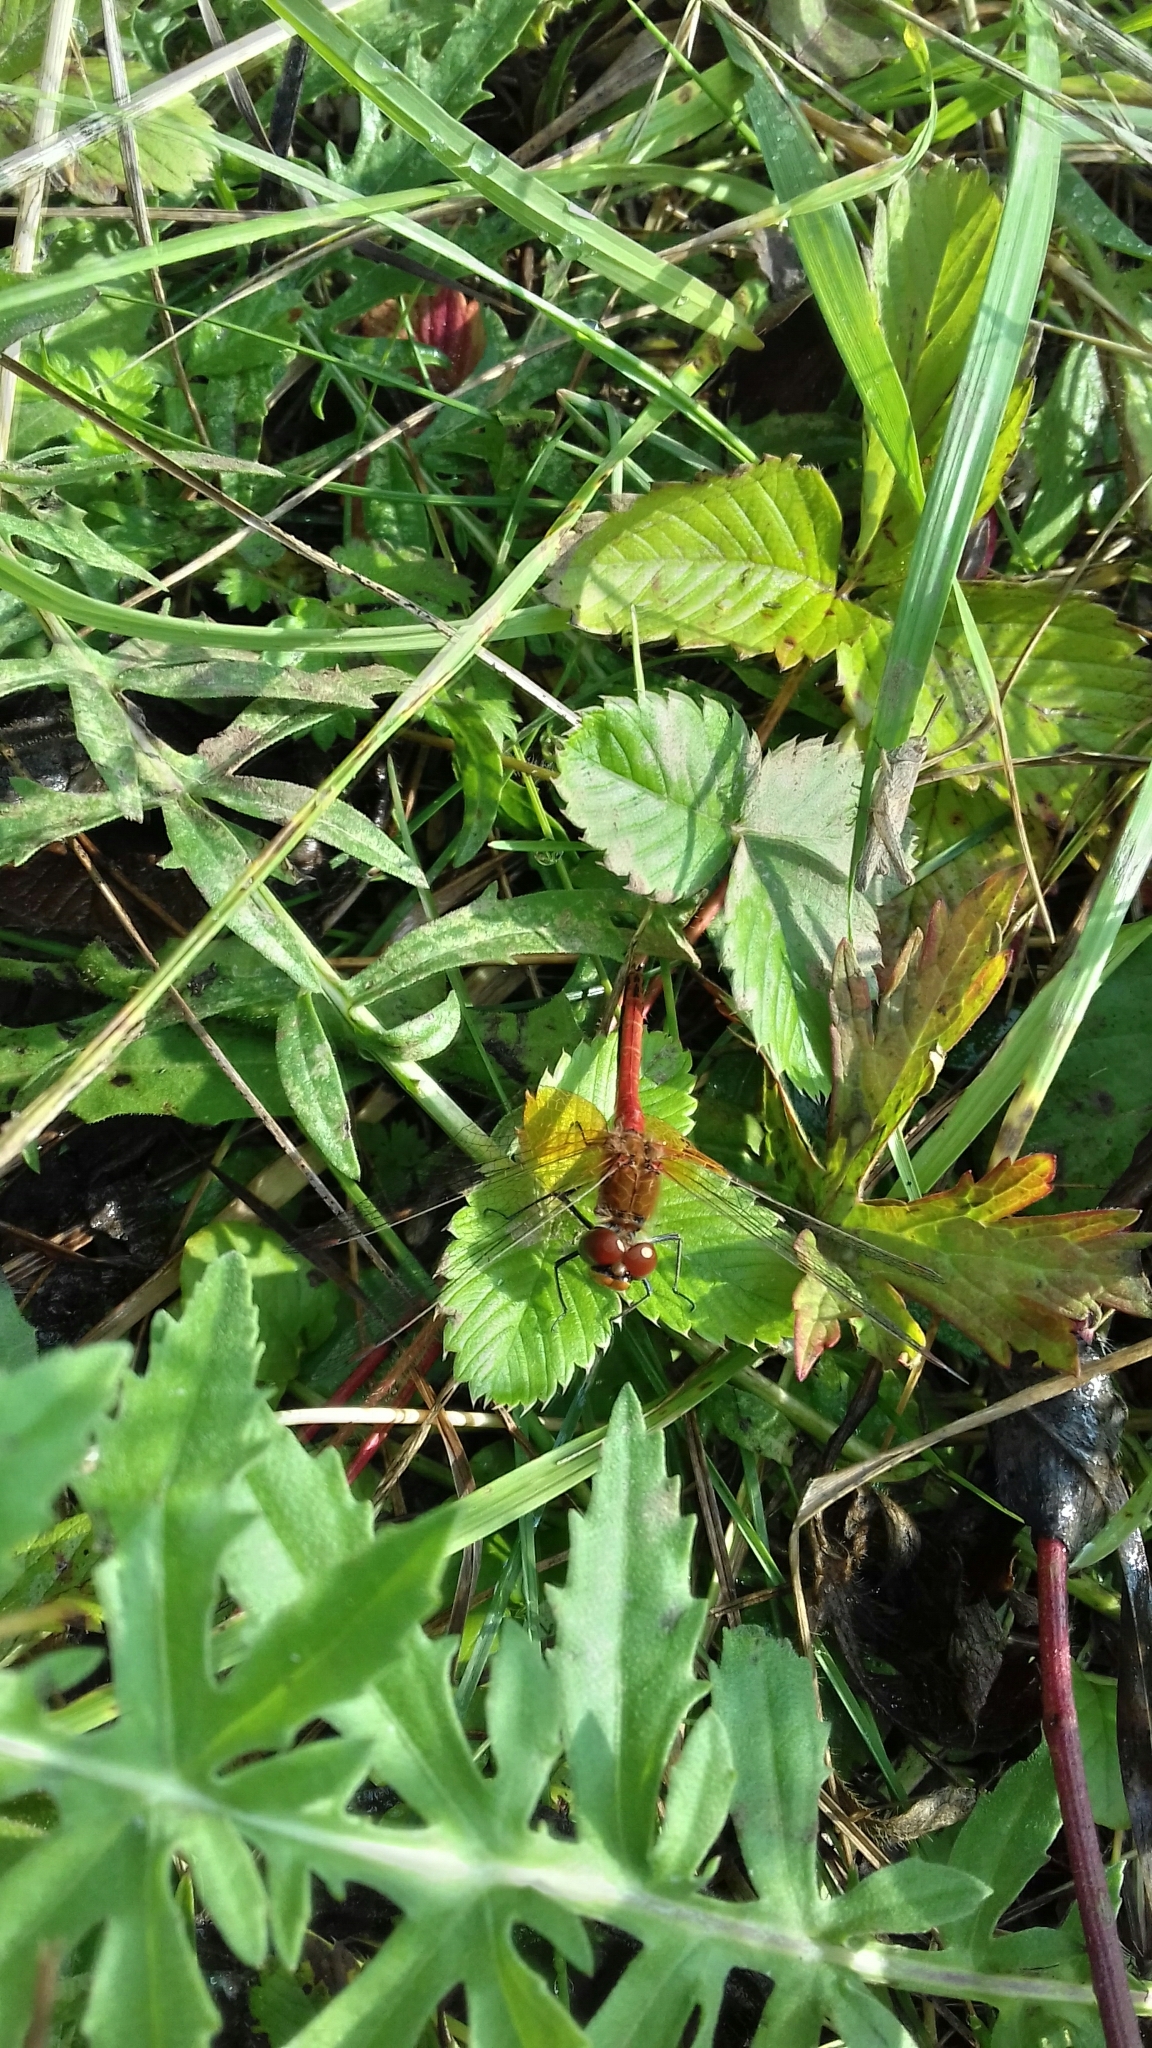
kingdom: Animalia
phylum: Arthropoda
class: Insecta
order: Odonata
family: Libellulidae
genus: Sympetrum
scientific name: Sympetrum flaveolum
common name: Yellow-winged darter
